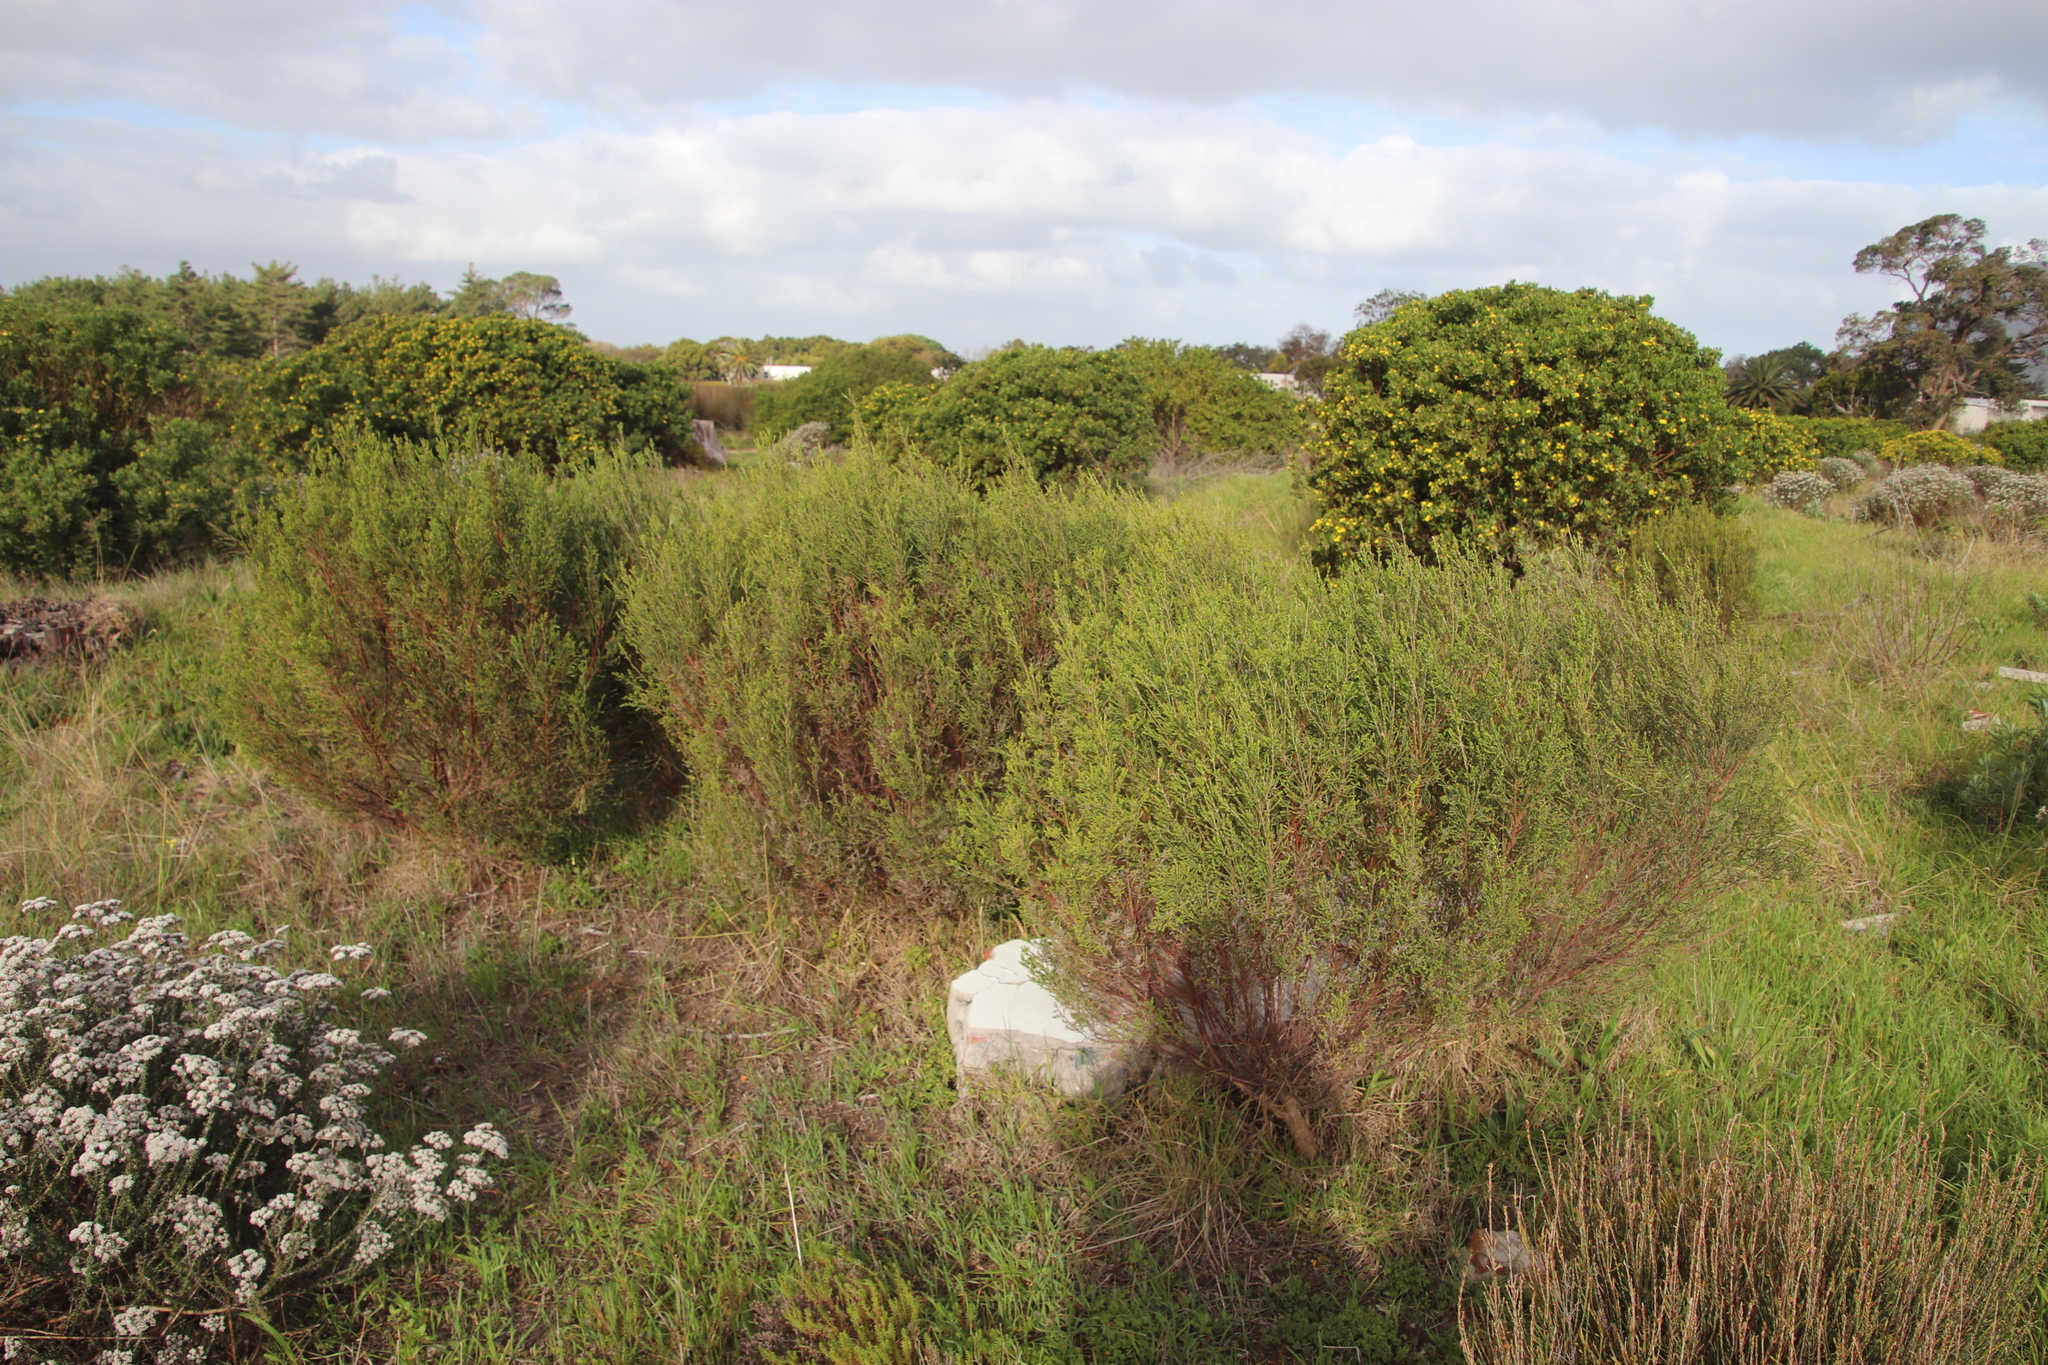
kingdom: Plantae
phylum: Tracheophyta
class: Magnoliopsida
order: Malvales
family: Thymelaeaceae
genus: Passerina
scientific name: Passerina corymbosa
